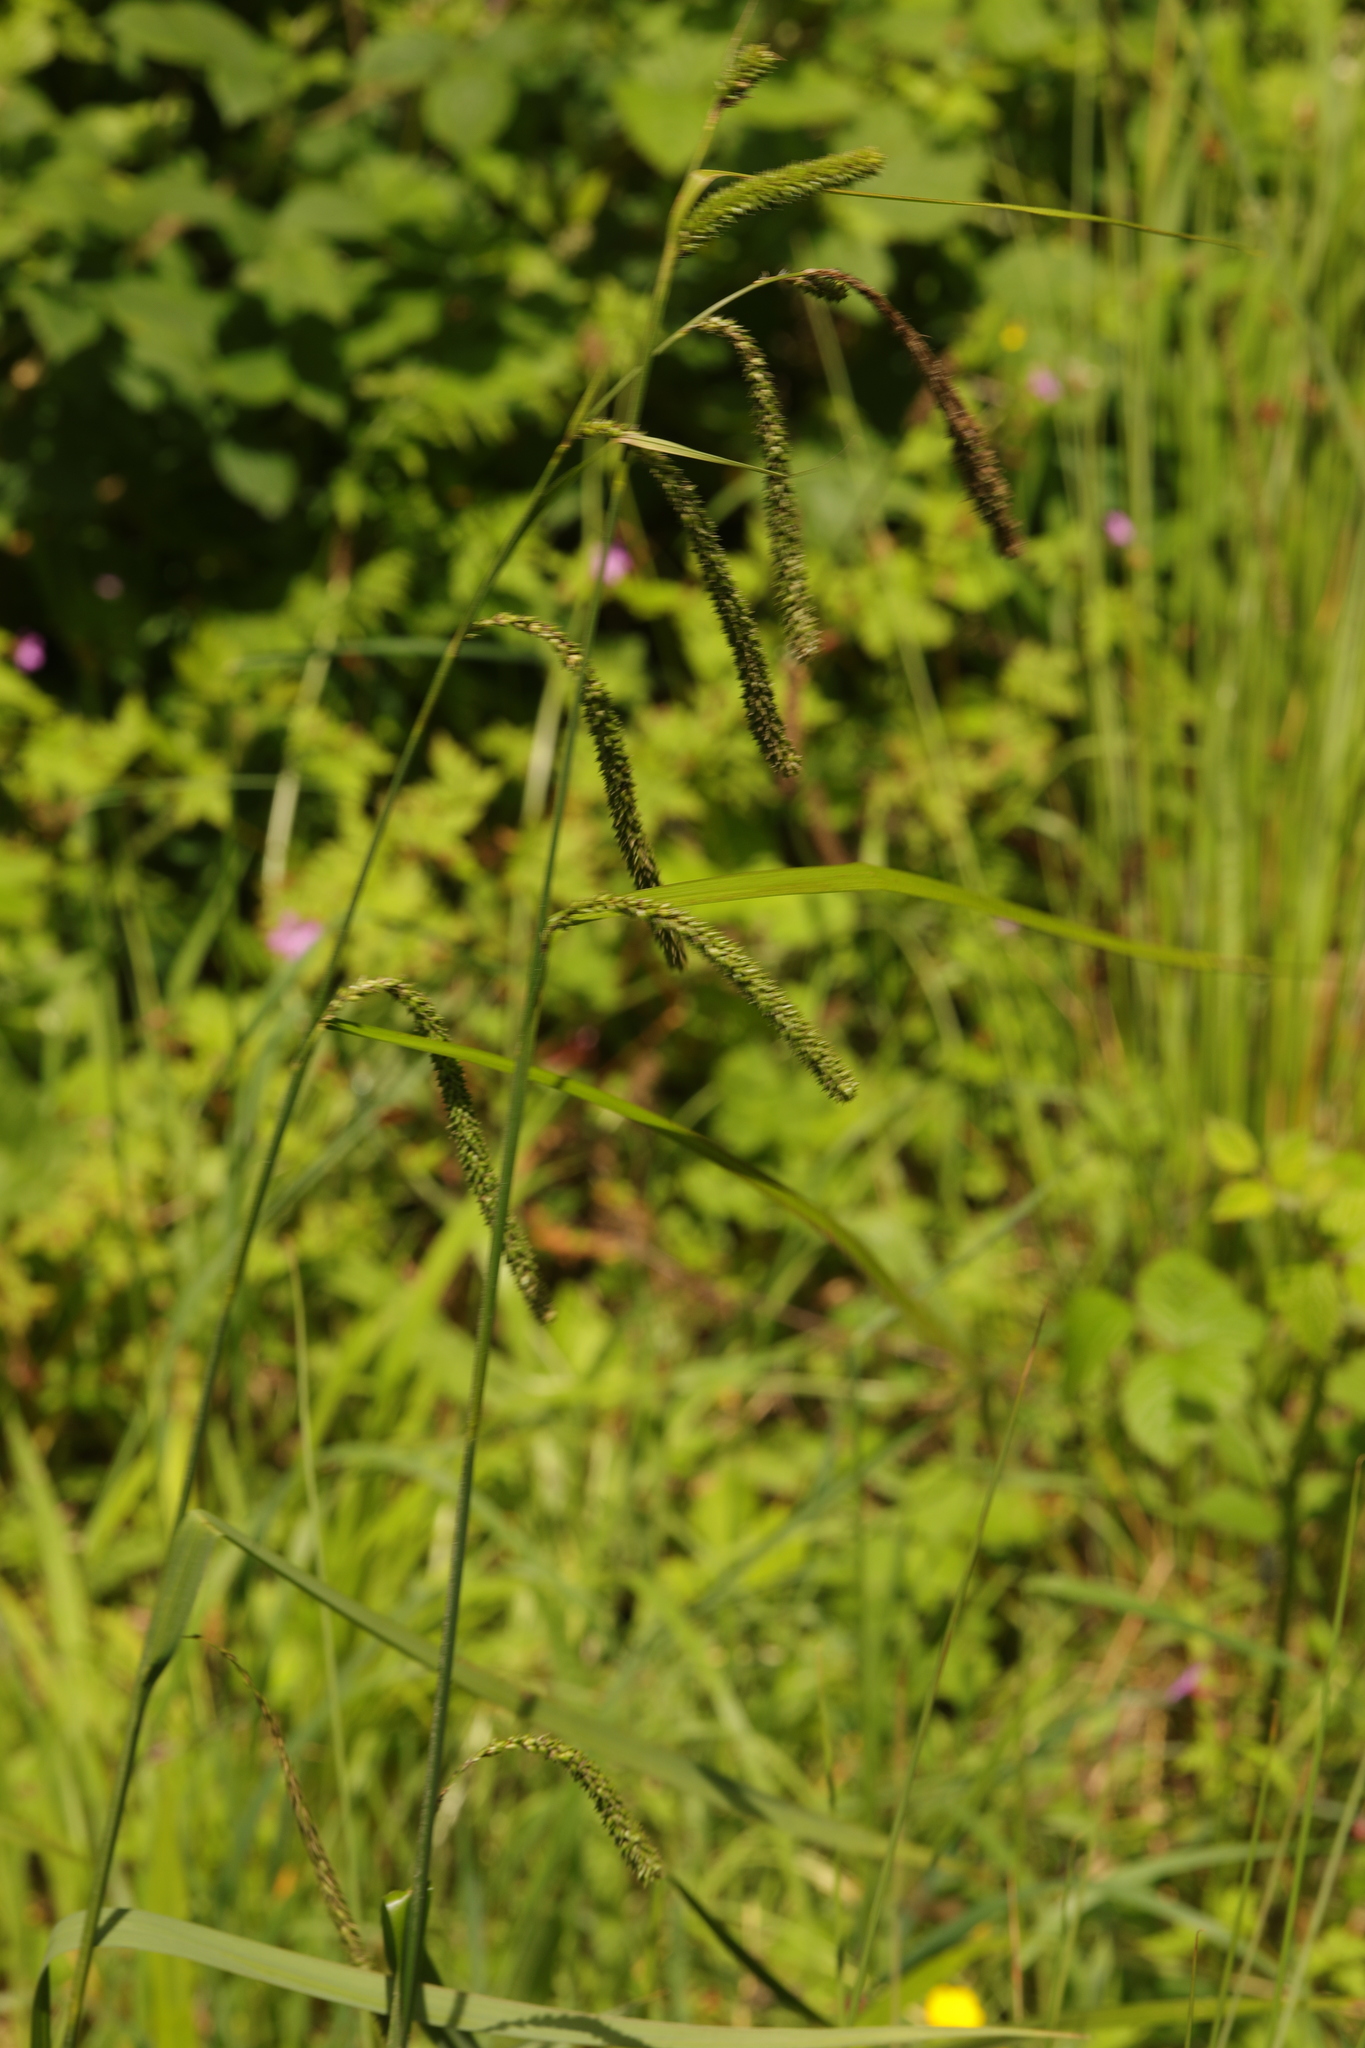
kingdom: Plantae
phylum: Tracheophyta
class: Liliopsida
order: Poales
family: Cyperaceae
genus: Carex
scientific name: Carex pendula
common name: Pendulous sedge
